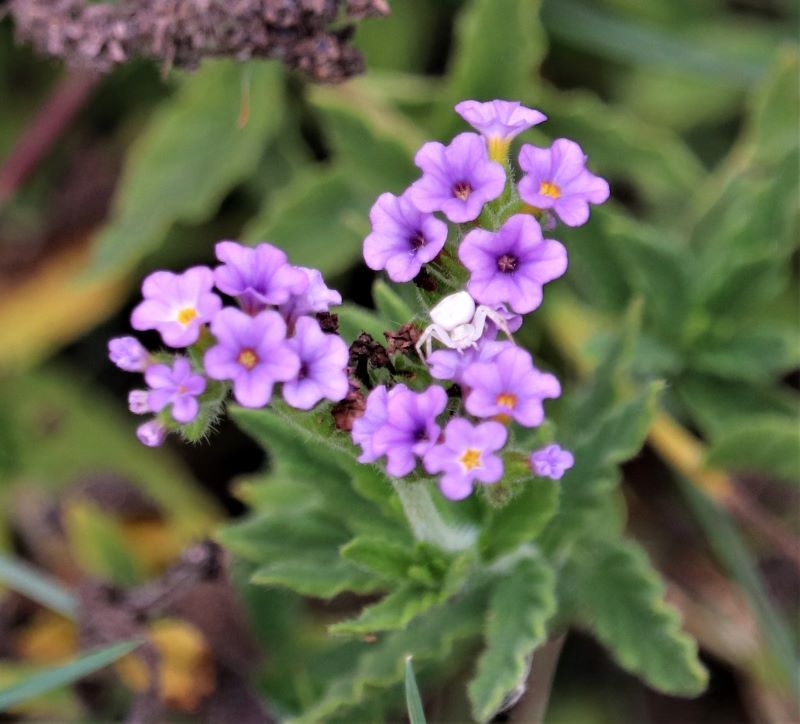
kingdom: Plantae
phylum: Tracheophyta
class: Magnoliopsida
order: Boraginales
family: Heliotropiaceae
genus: Heliotropium
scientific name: Heliotropium amplexicaule
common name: Clasping heliotrope
